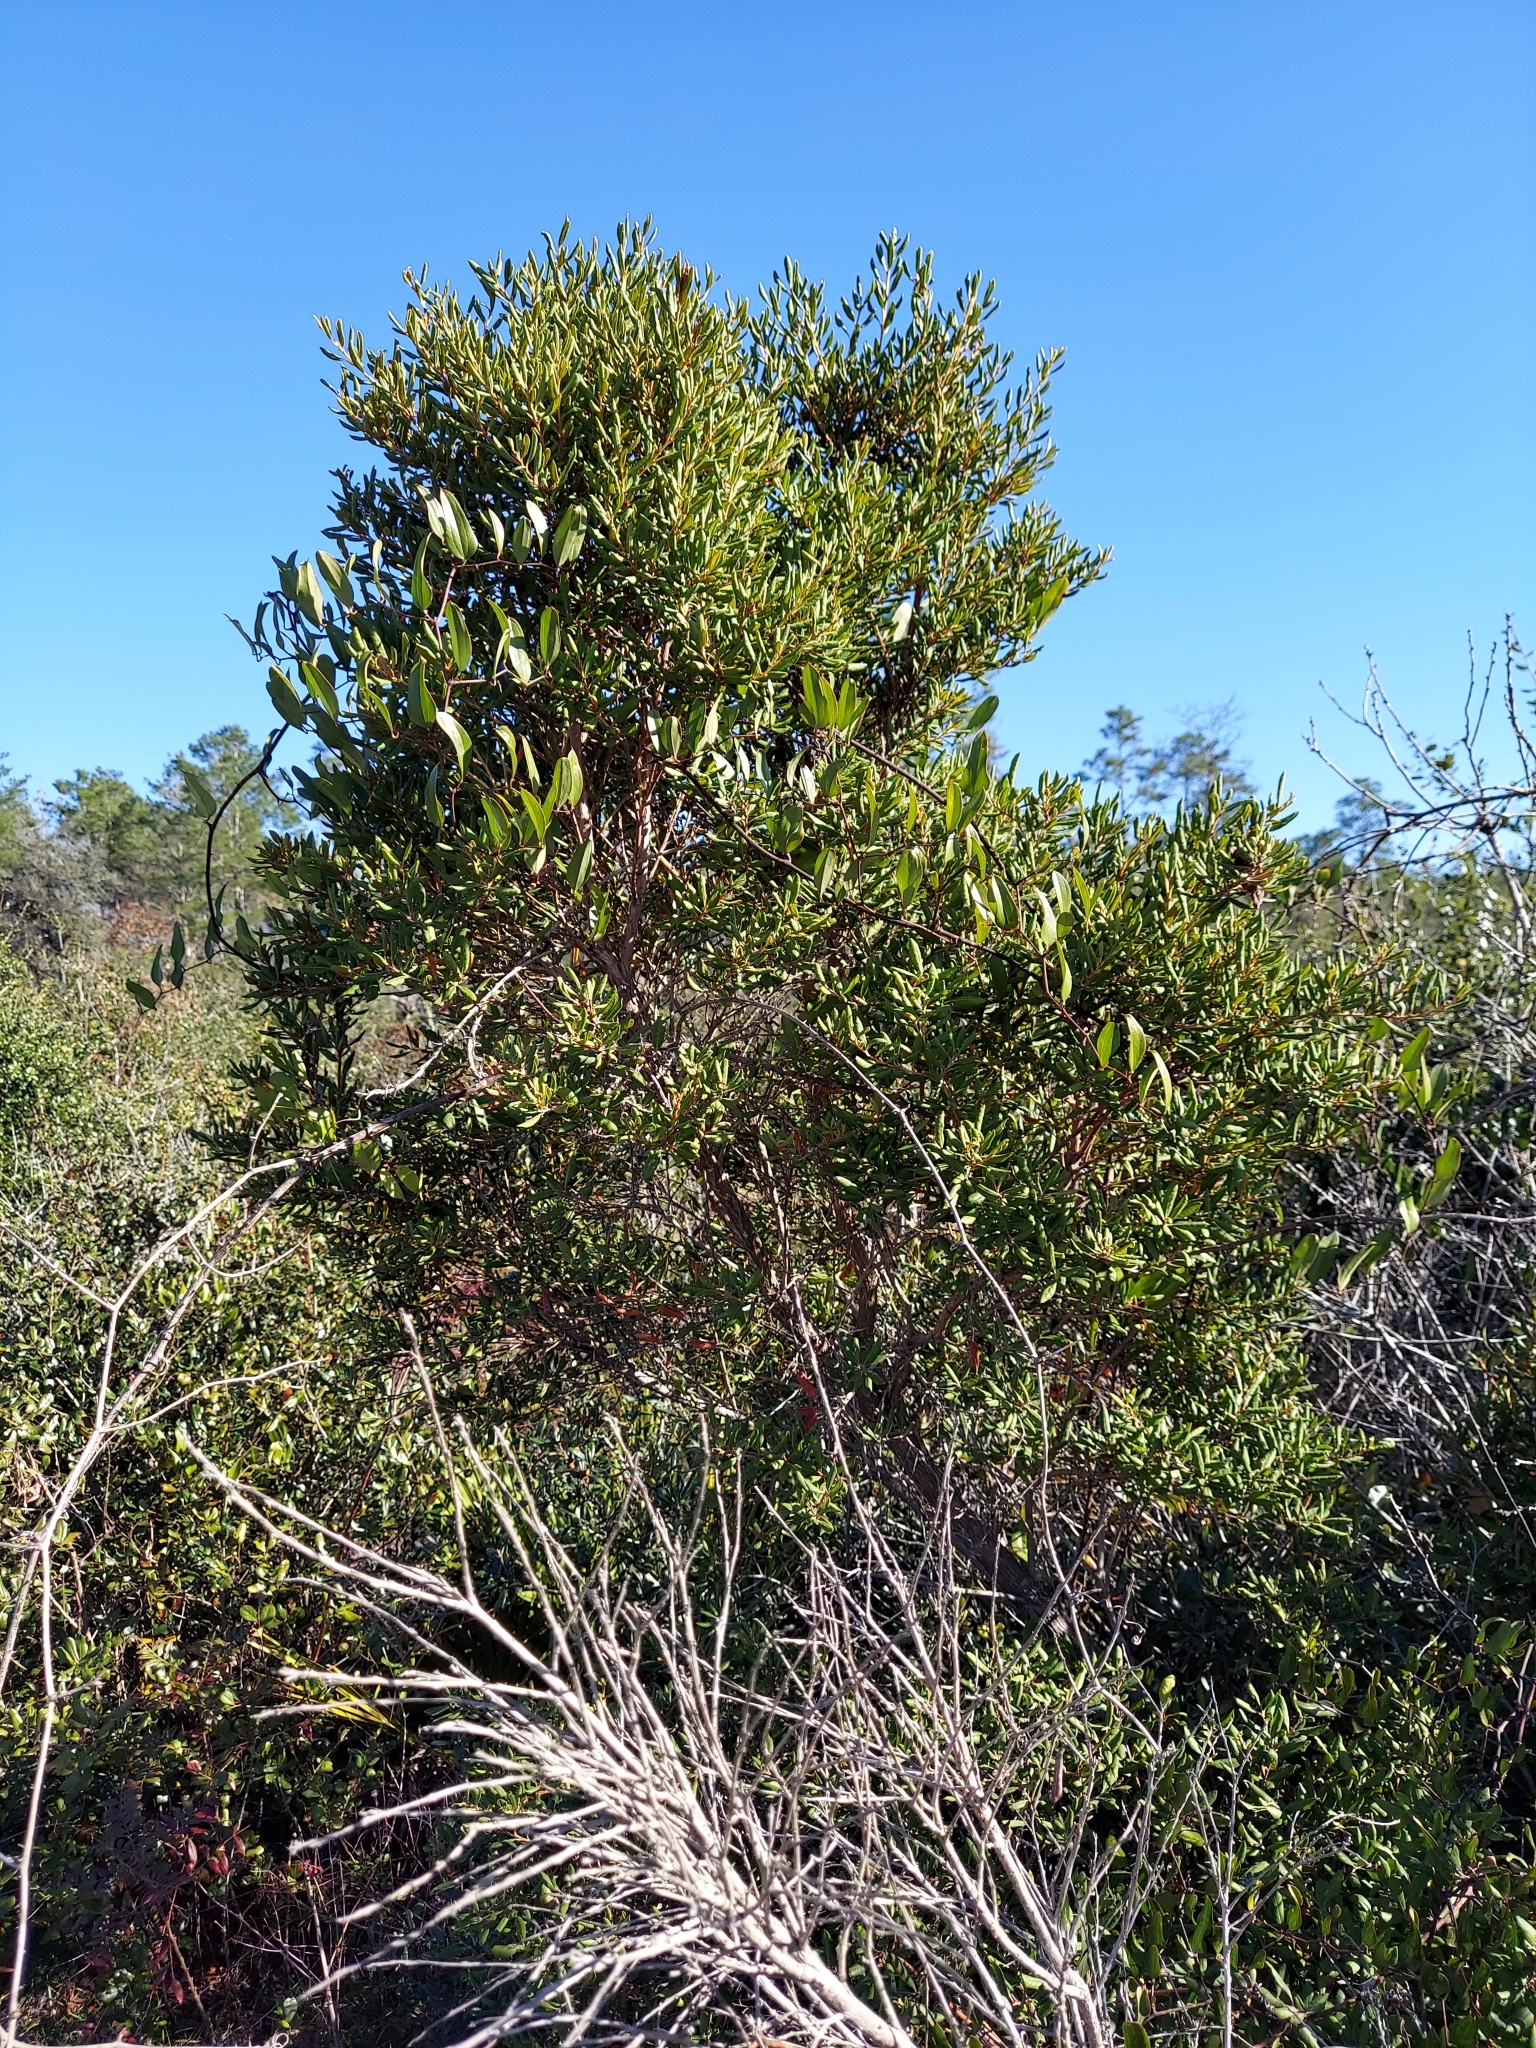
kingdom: Plantae
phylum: Tracheophyta
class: Magnoliopsida
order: Ericales
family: Ericaceae
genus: Lyonia
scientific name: Lyonia ferruginea
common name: Rusty lyonia
